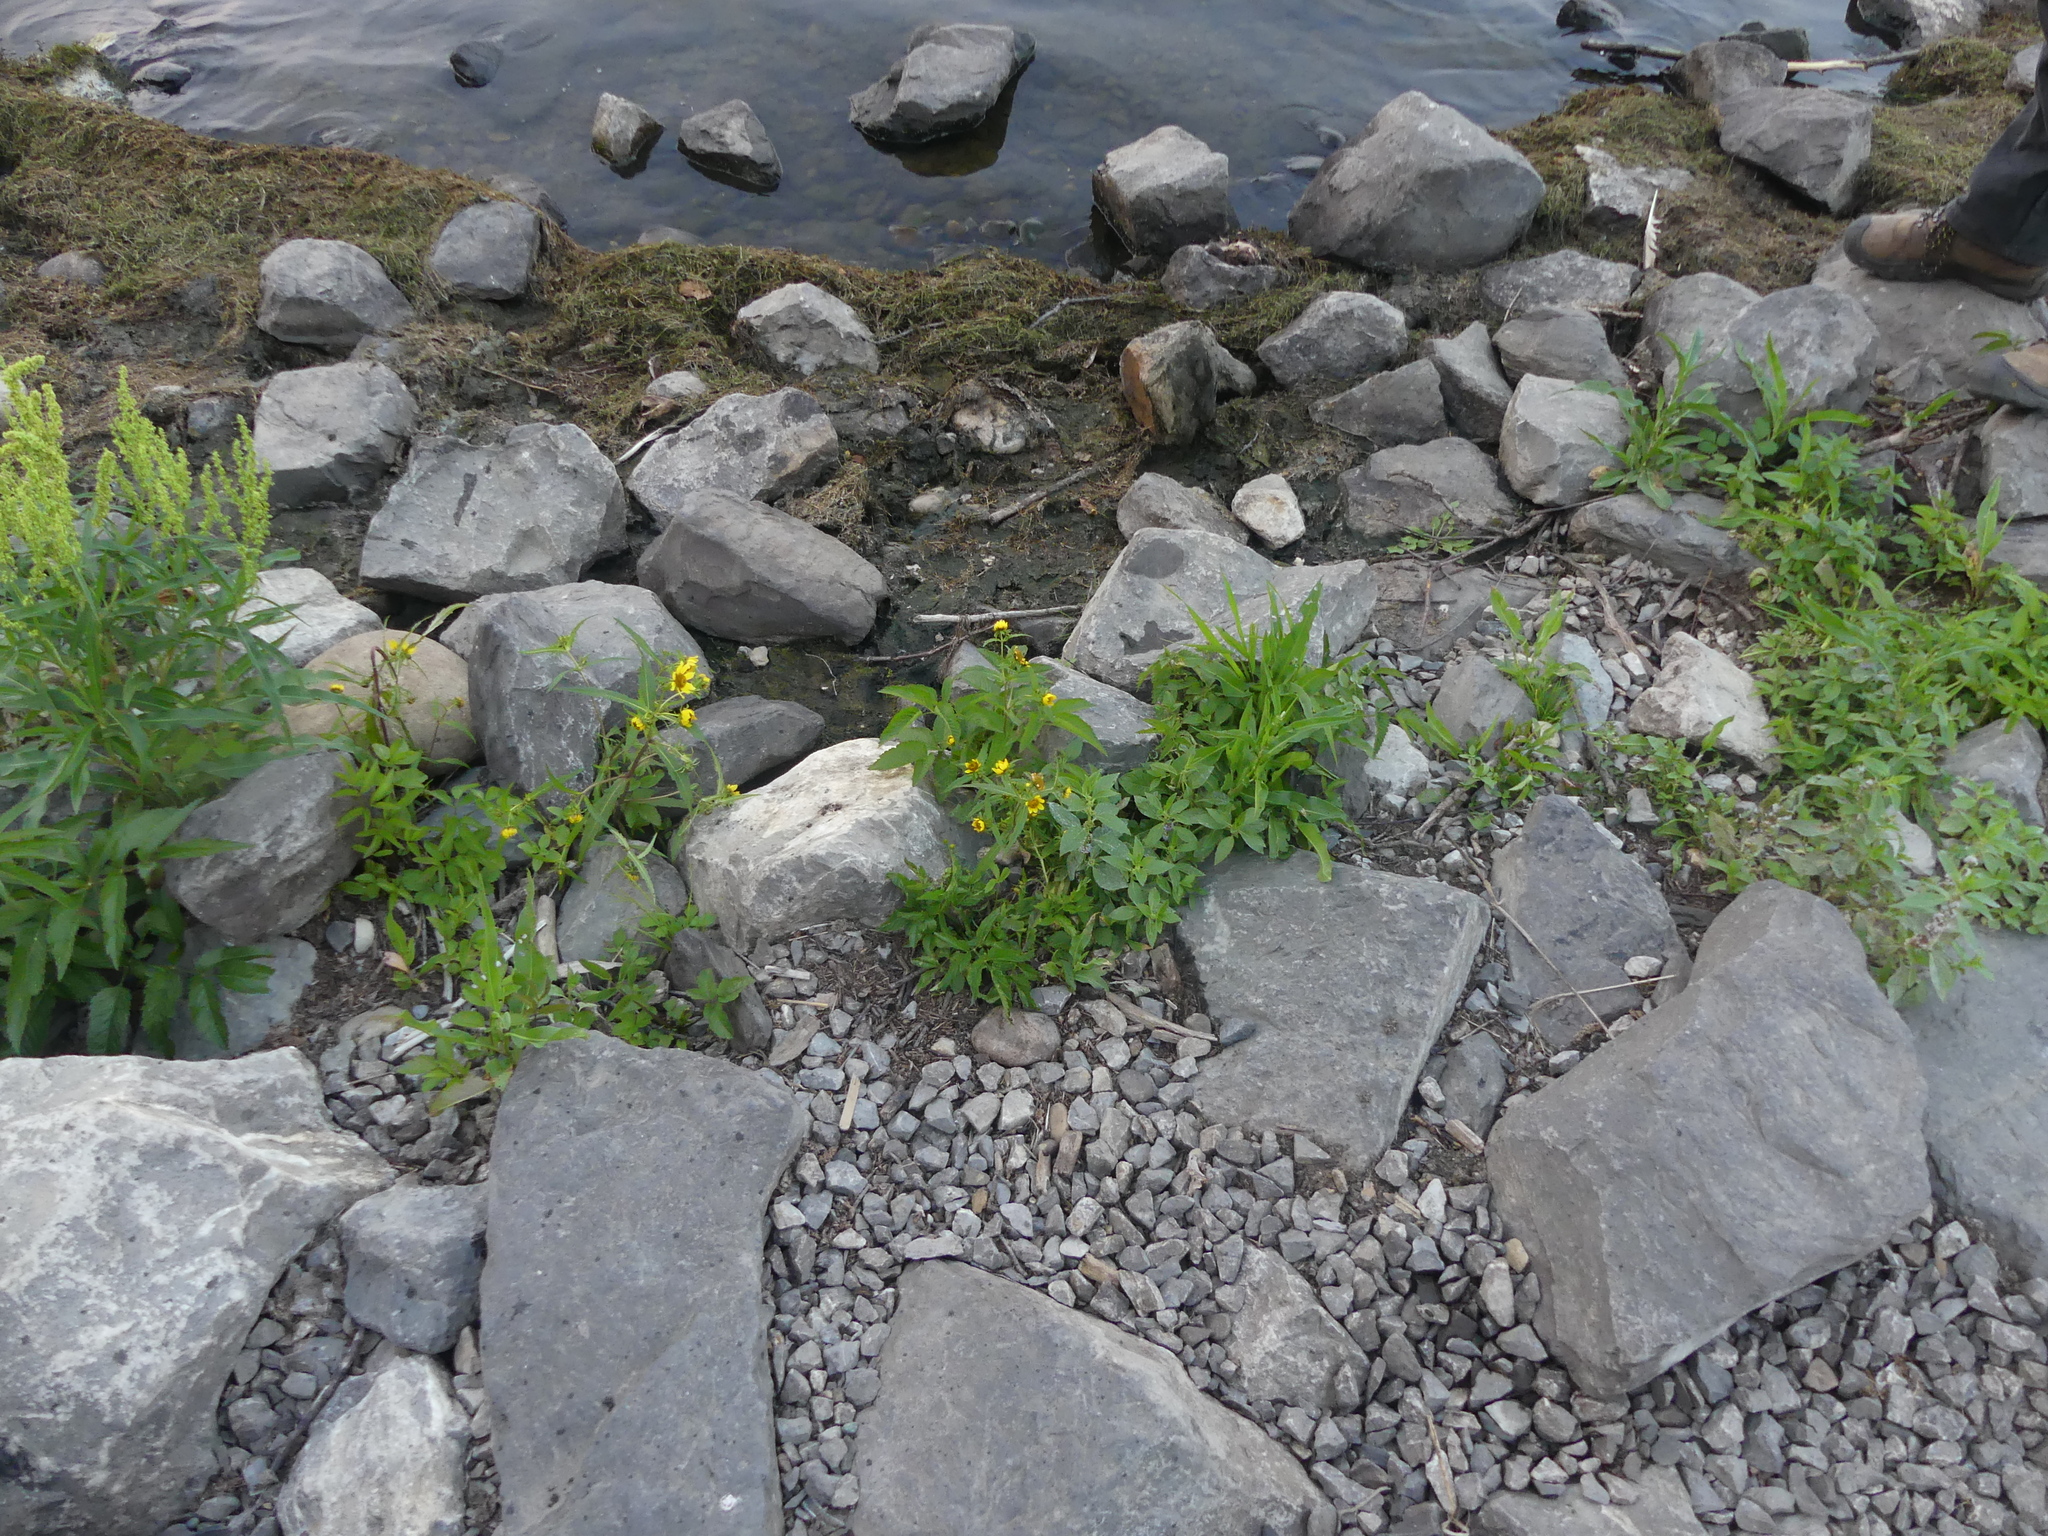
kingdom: Plantae
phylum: Tracheophyta
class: Magnoliopsida
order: Asterales
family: Asteraceae
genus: Bidens
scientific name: Bidens cernua
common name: Nodding bur-marigold
